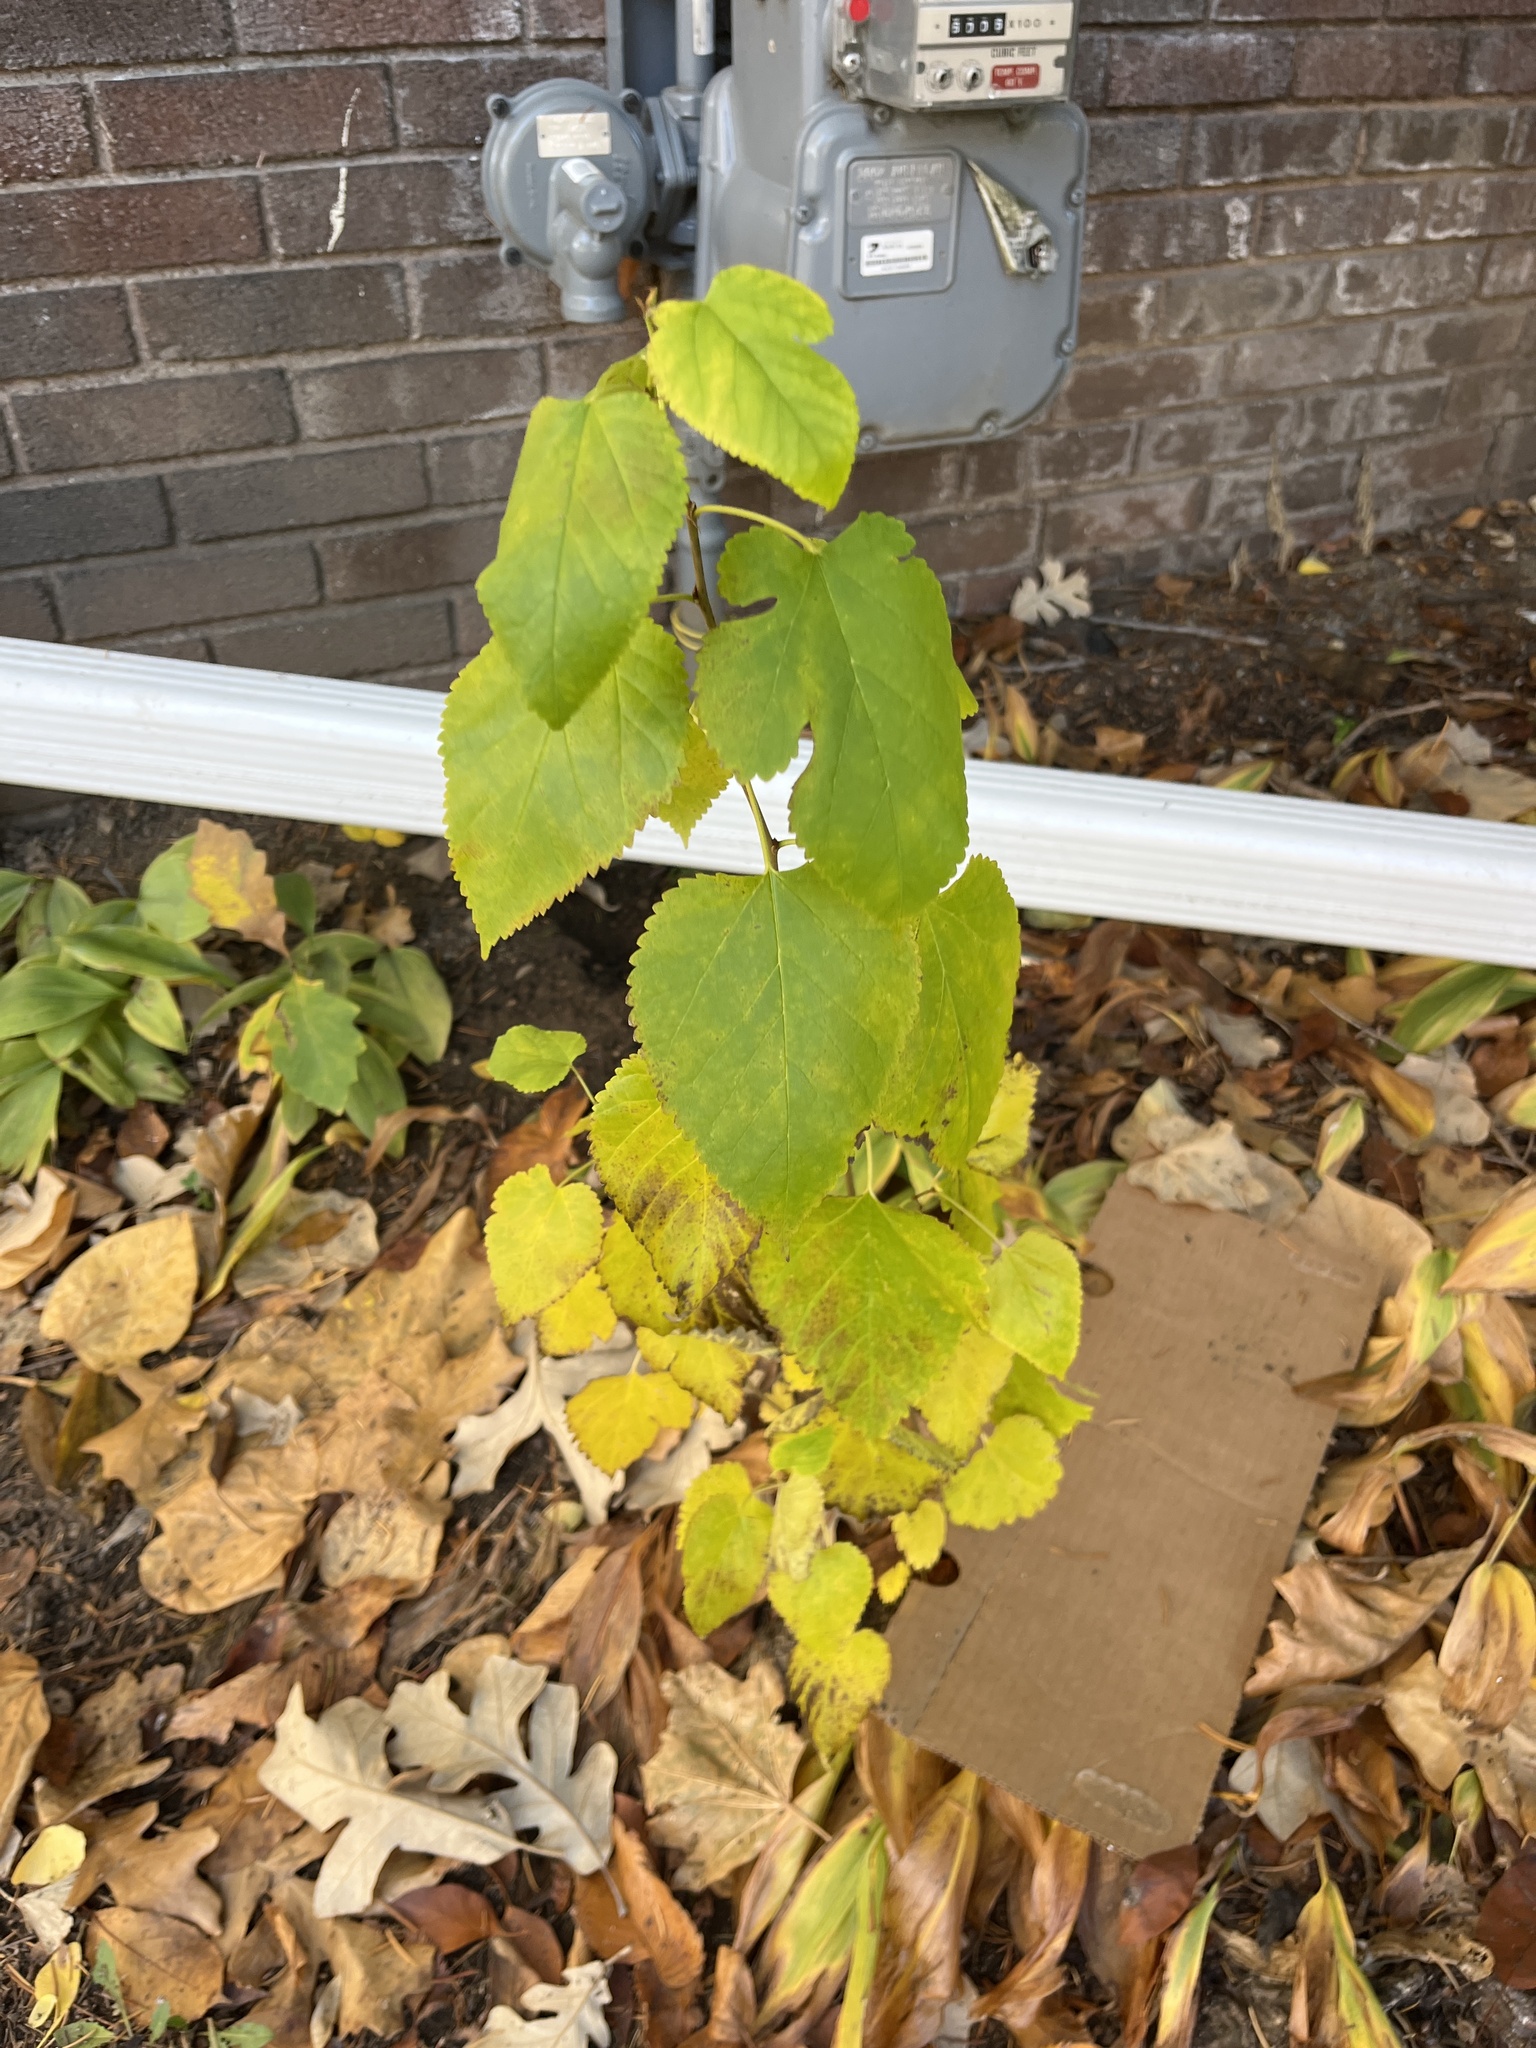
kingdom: Plantae
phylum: Tracheophyta
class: Magnoliopsida
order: Rosales
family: Moraceae
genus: Morus
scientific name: Morus alba
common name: White mulberry
